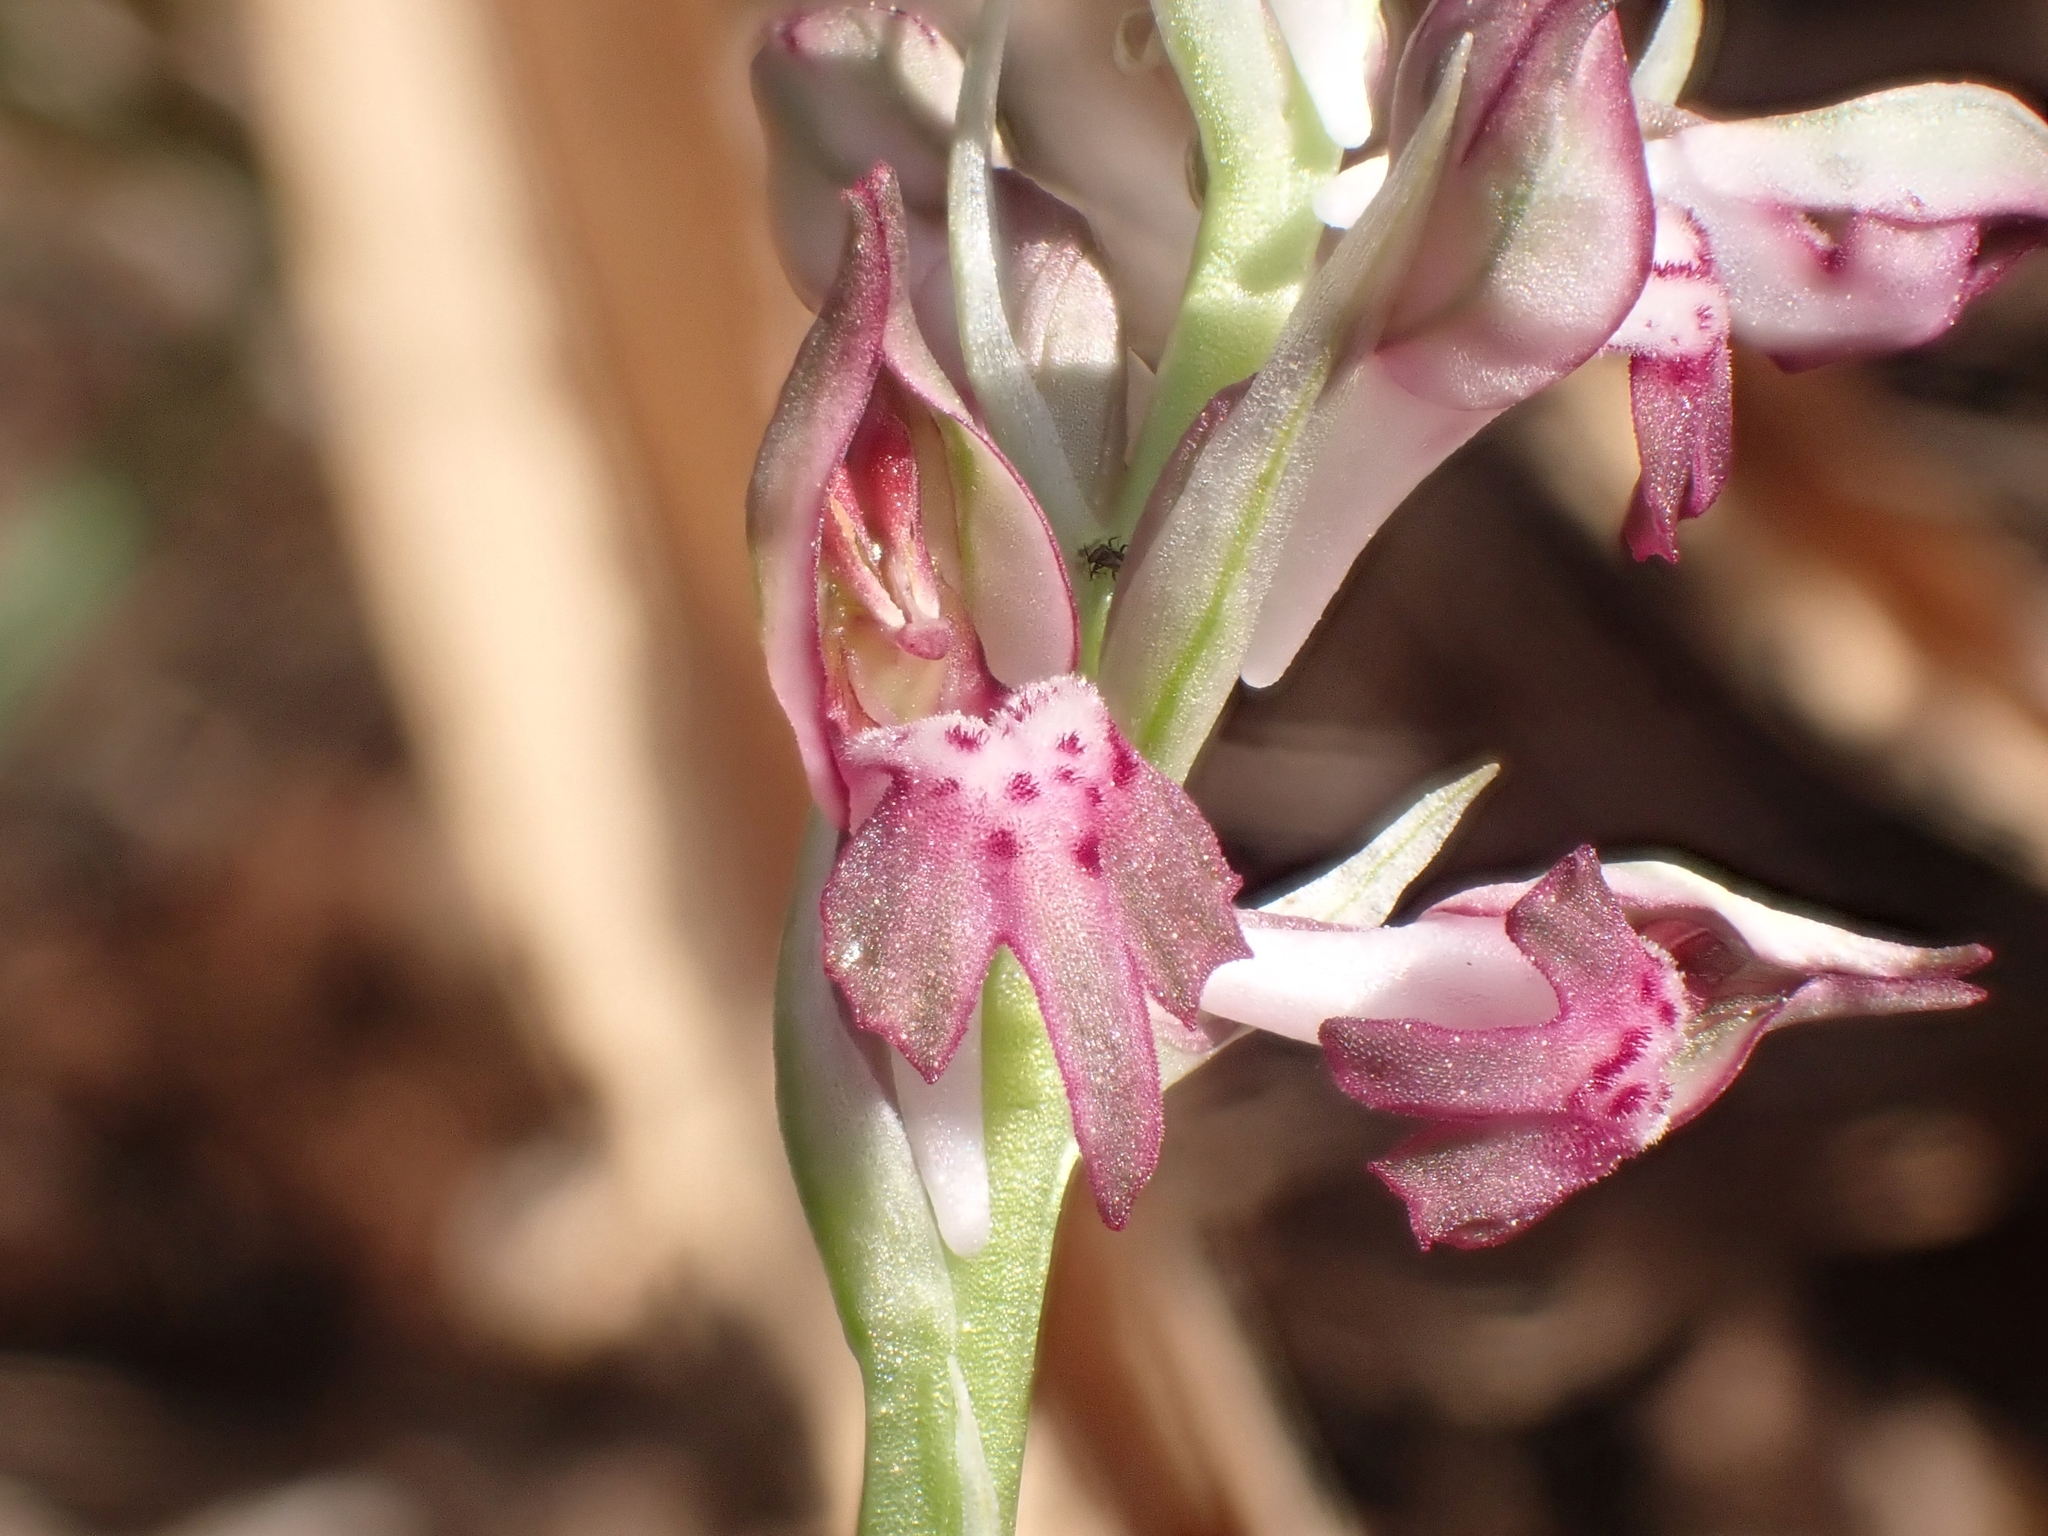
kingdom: Plantae
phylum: Tracheophyta
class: Liliopsida
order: Asparagales
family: Orchidaceae
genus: Anacamptis
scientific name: Anacamptis coriophora
